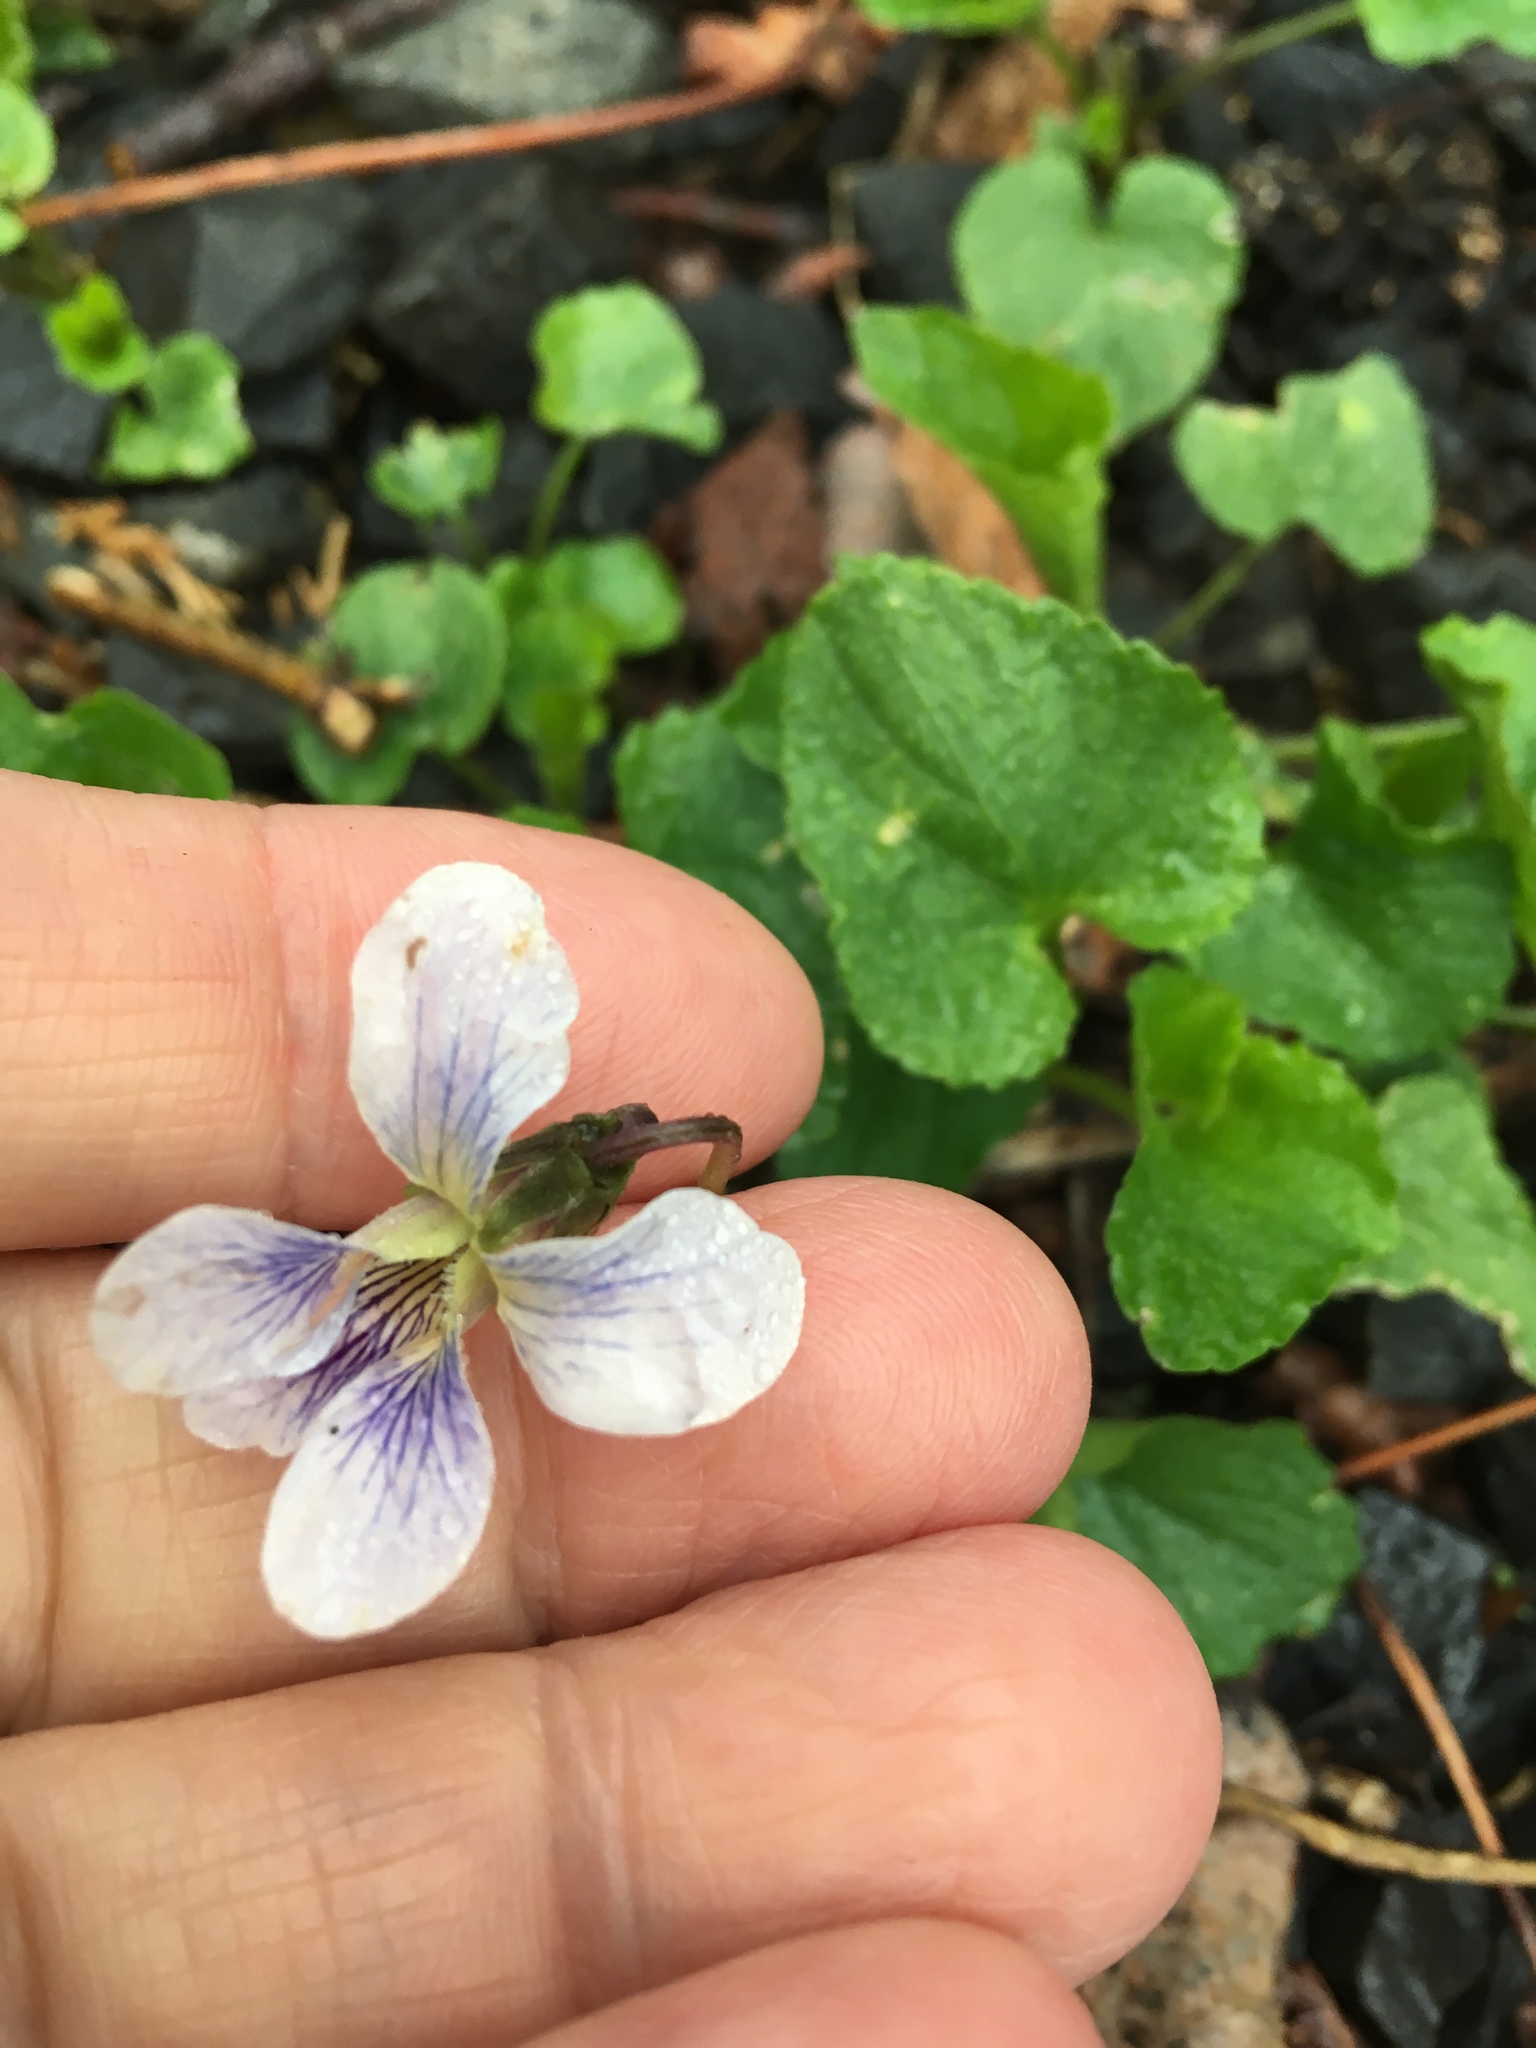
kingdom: Plantae
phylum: Tracheophyta
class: Magnoliopsida
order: Malpighiales
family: Violaceae
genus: Viola
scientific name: Viola sororia
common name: Dooryard violet
